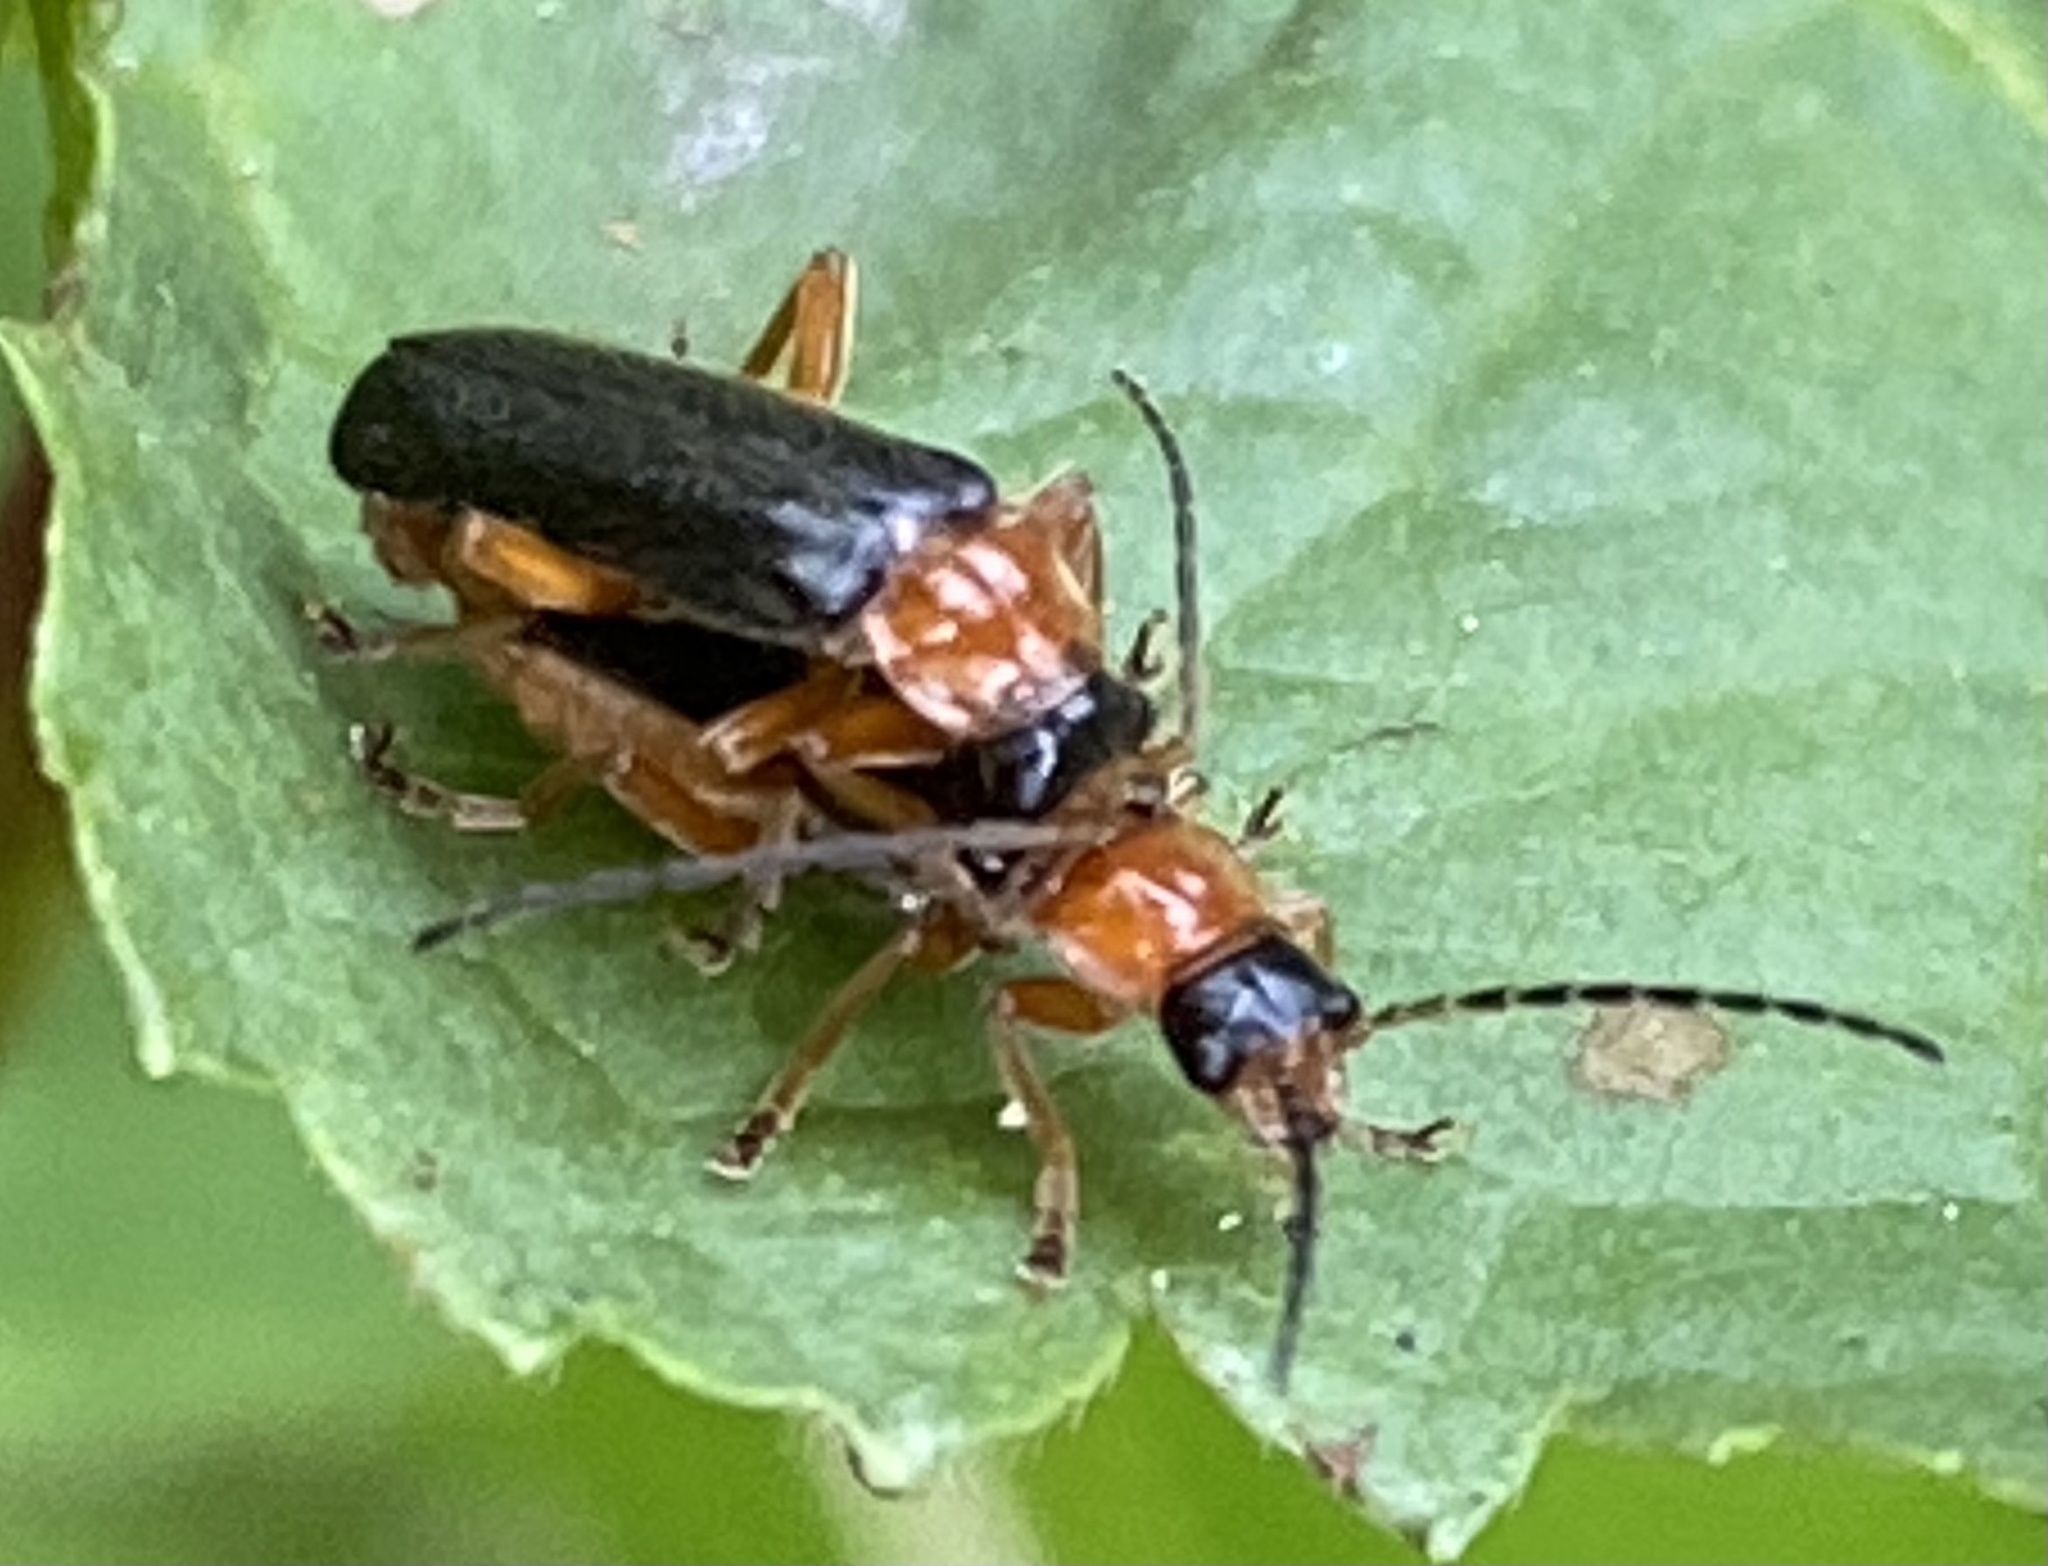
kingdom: Animalia
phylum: Arthropoda
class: Insecta
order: Coleoptera
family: Cantharidae
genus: Cantharis
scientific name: Cantharis nigra
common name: Cantharid beetle
